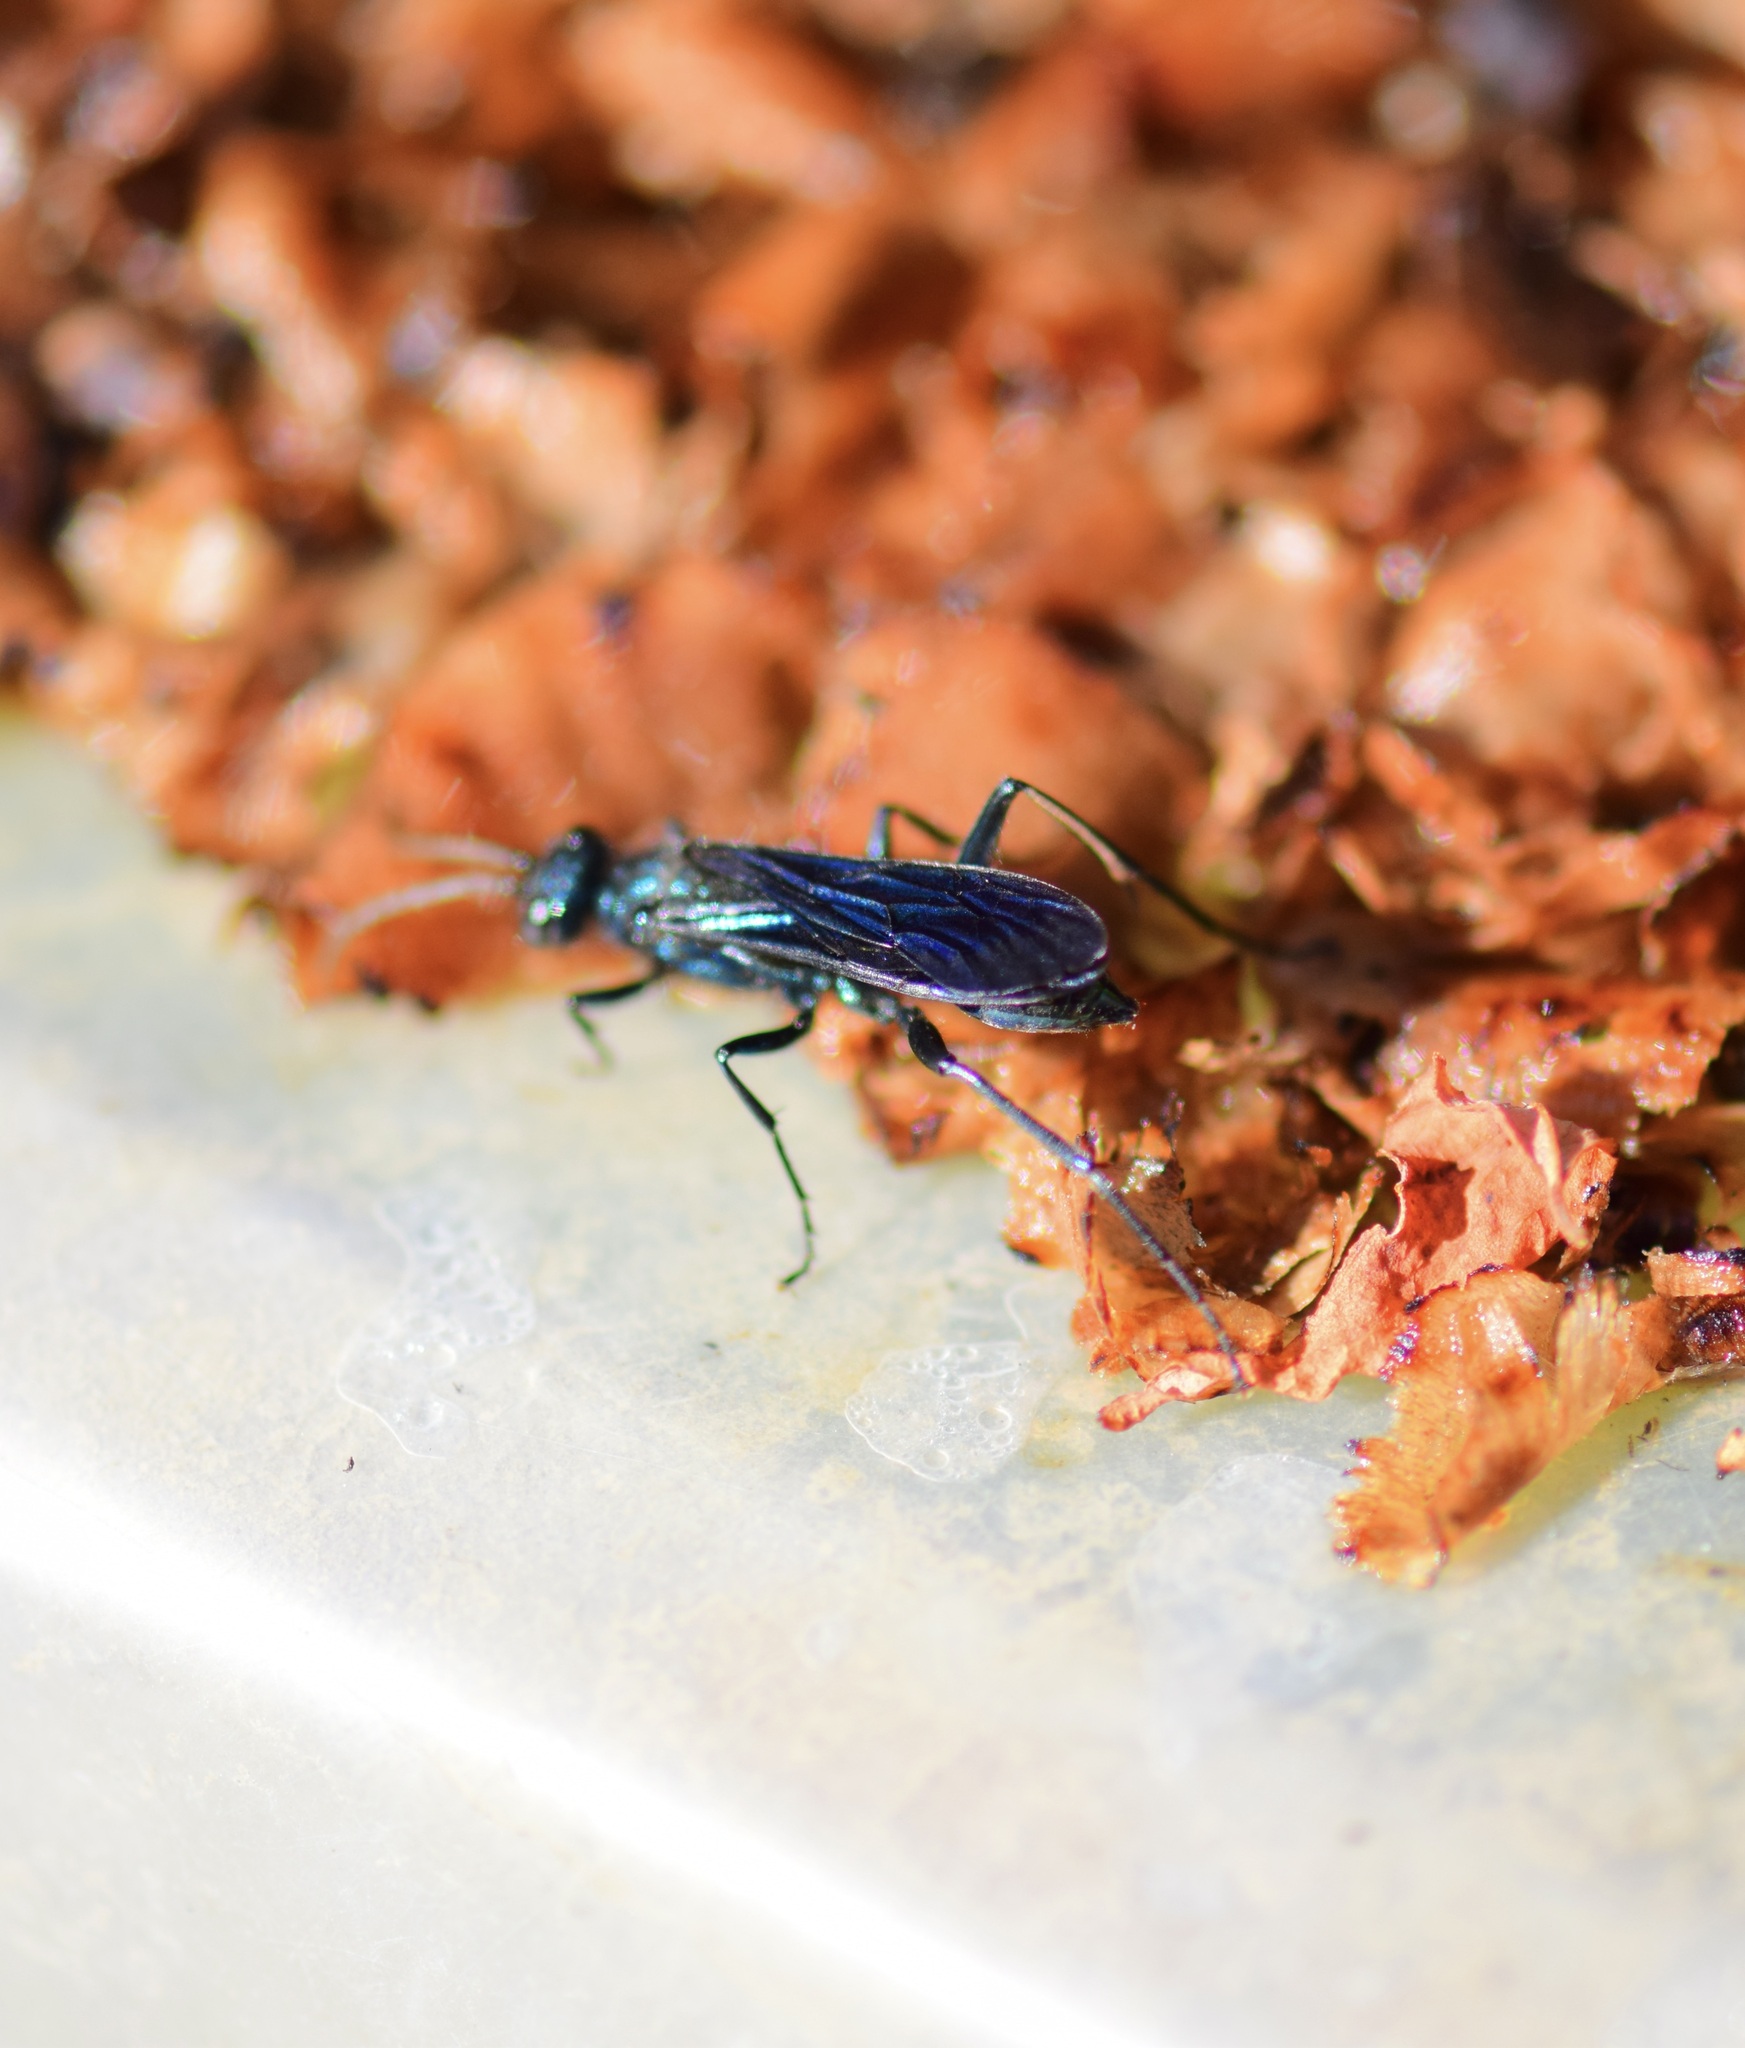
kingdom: Animalia
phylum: Arthropoda
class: Insecta
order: Hymenoptera
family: Sphecidae
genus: Chalybion
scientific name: Chalybion californicum
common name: Mud dauber
